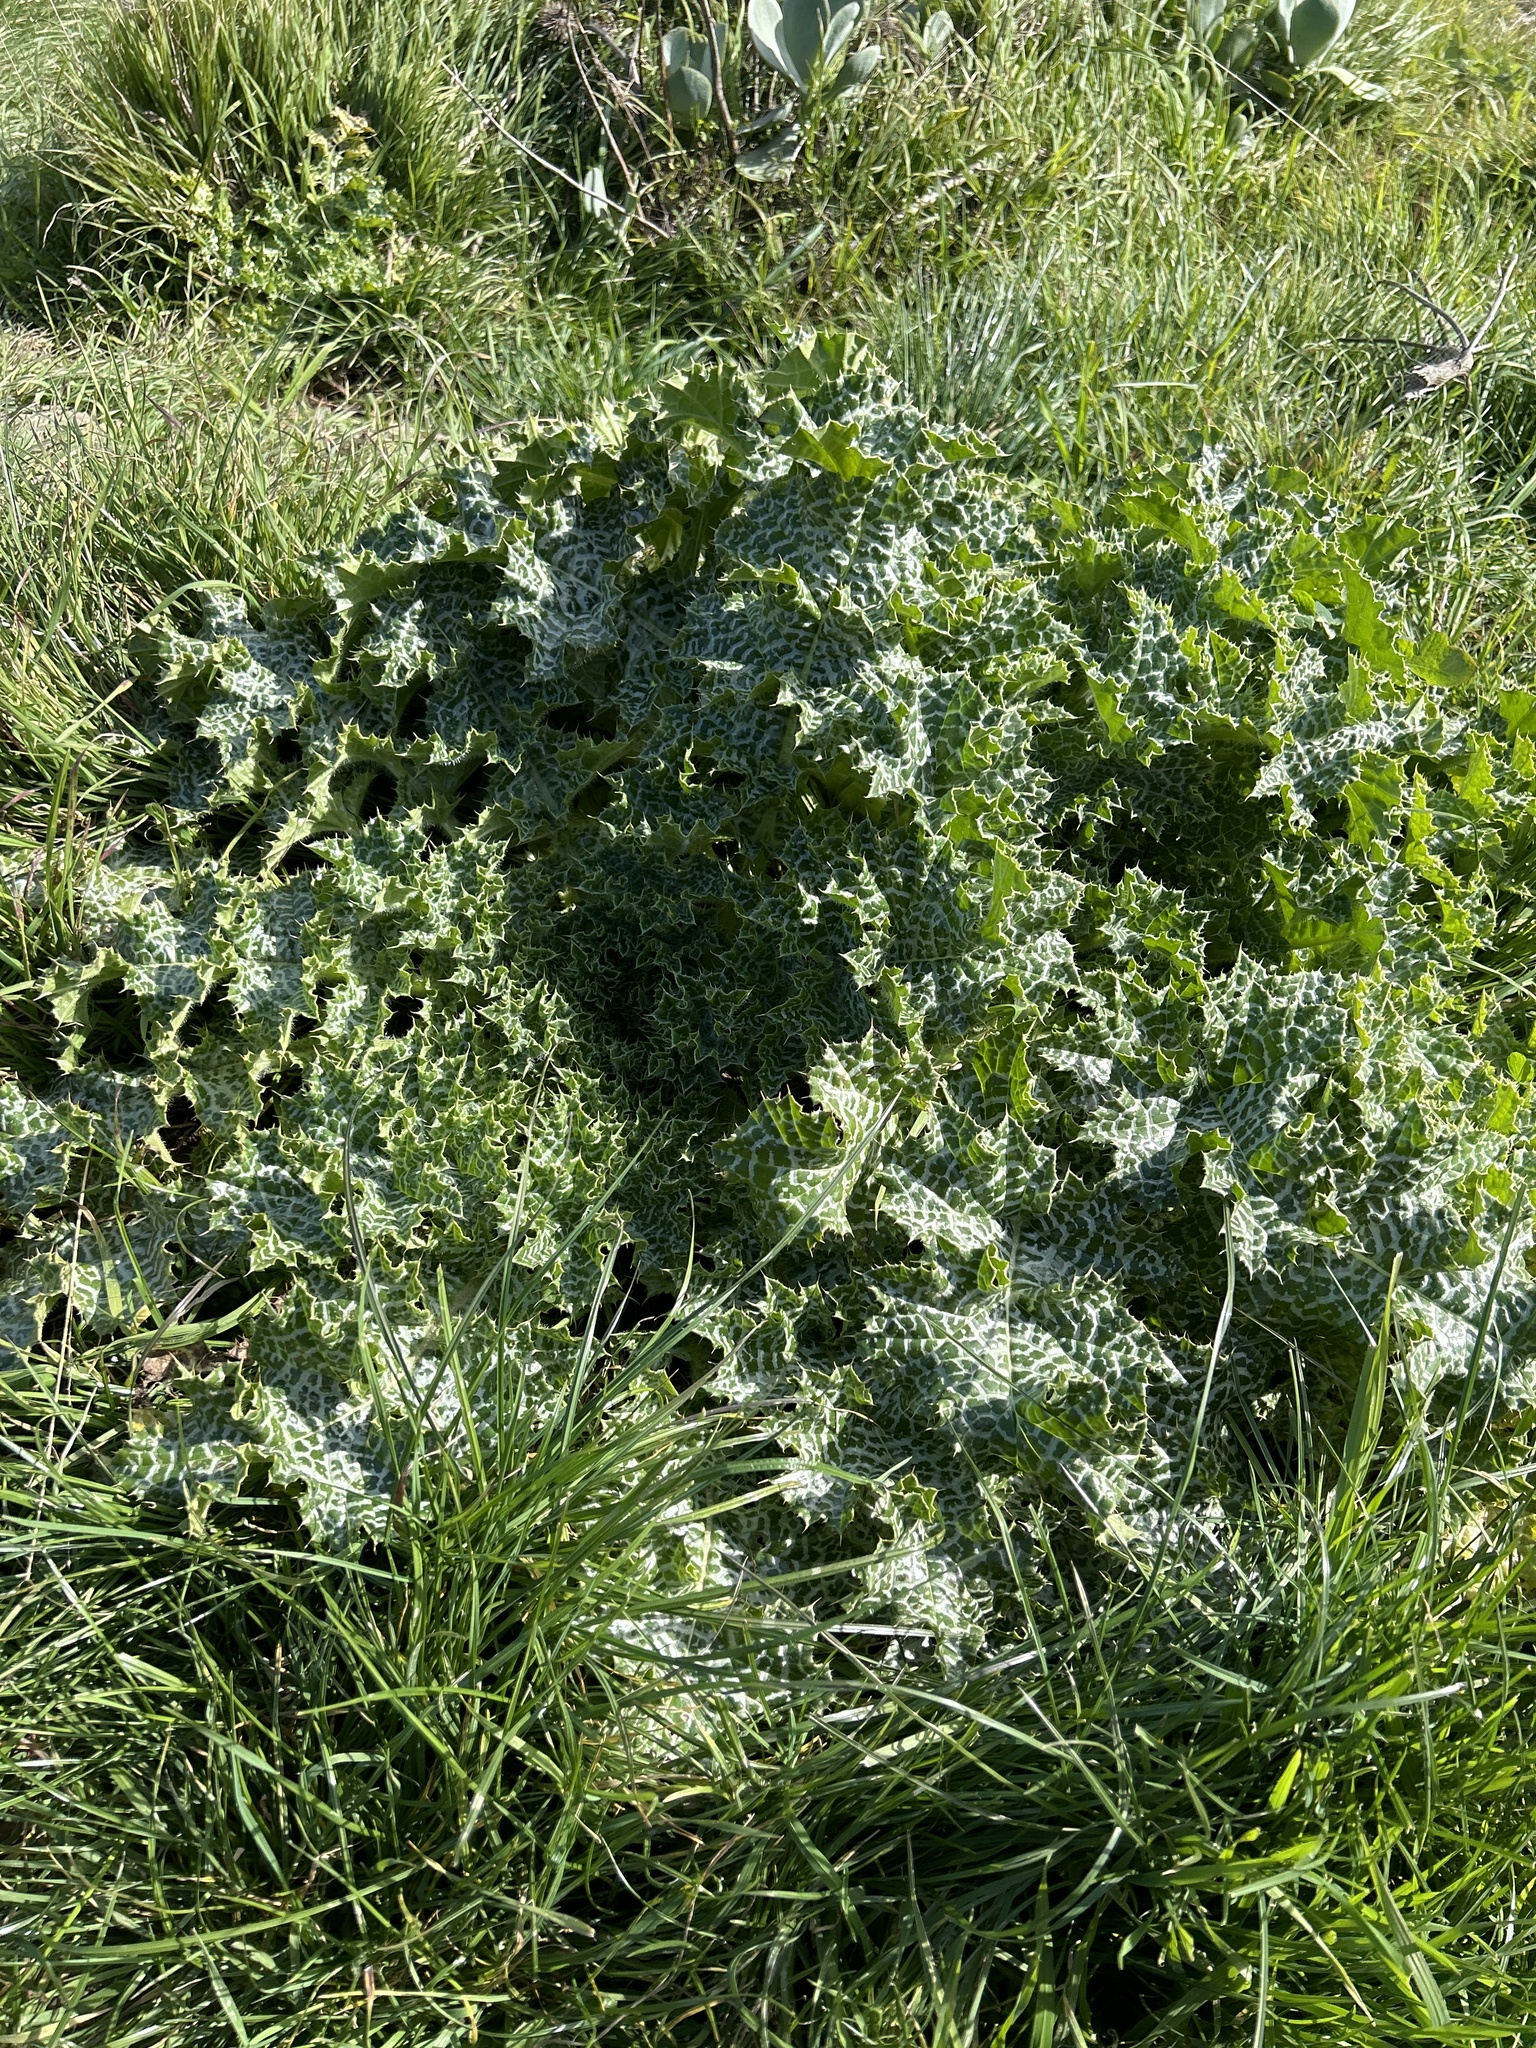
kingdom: Plantae
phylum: Tracheophyta
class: Magnoliopsida
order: Asterales
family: Asteraceae
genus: Silybum
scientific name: Silybum marianum
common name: Milk thistle
